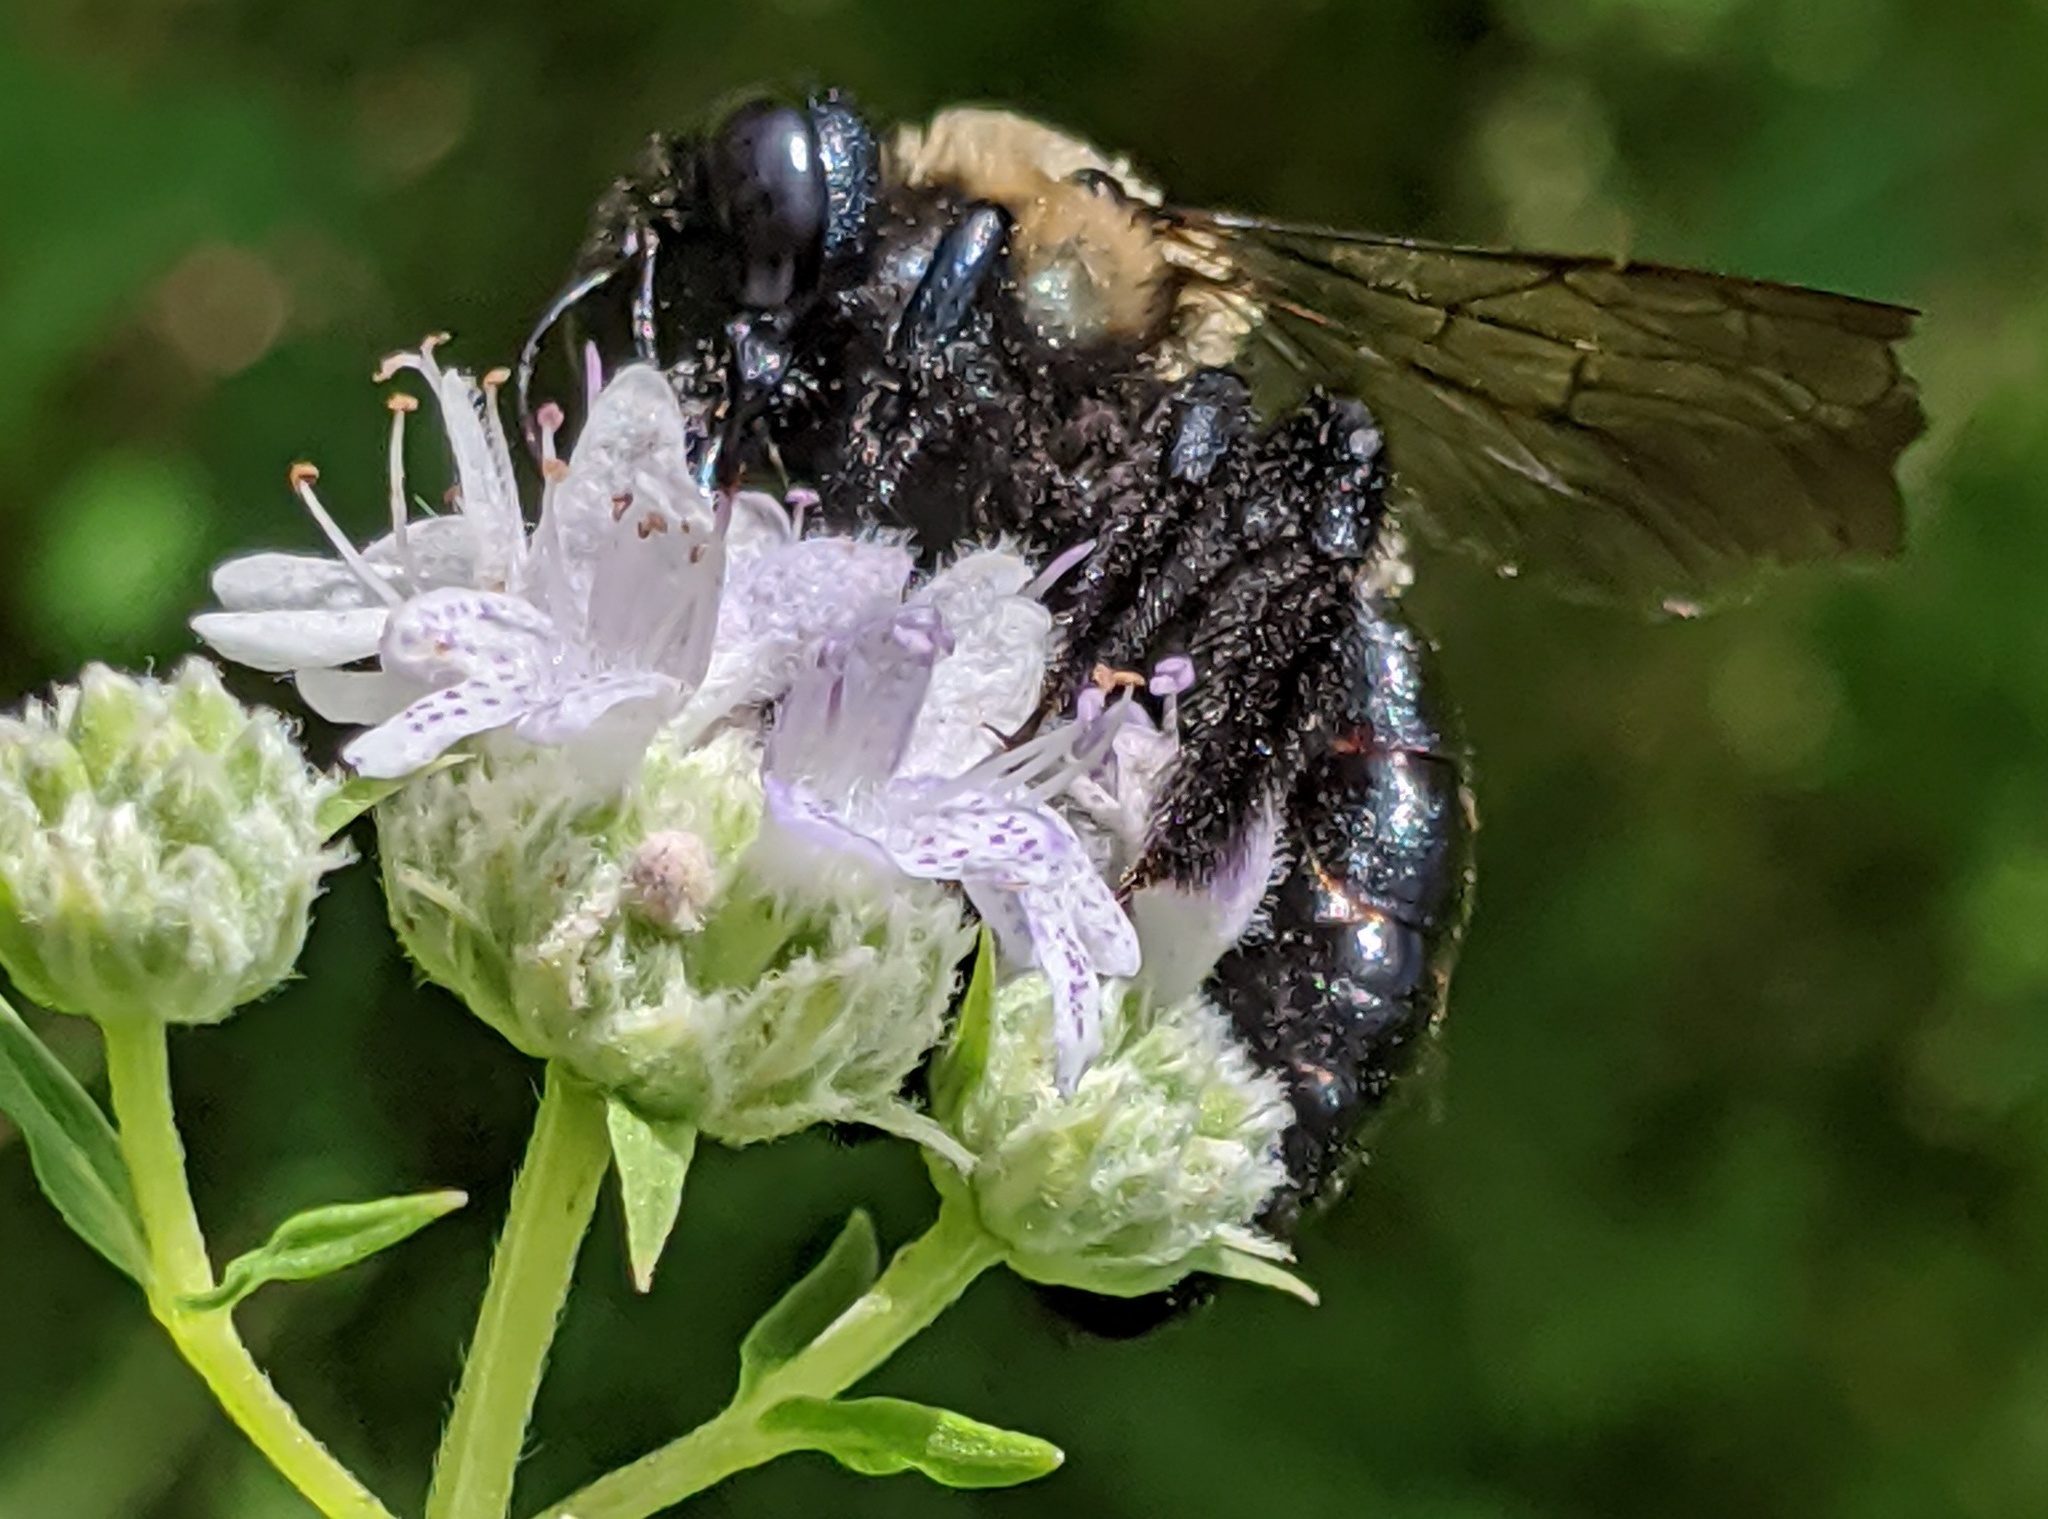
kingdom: Animalia
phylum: Arthropoda
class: Insecta
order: Hymenoptera
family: Apidae
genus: Xylocopa
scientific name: Xylocopa virginica
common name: Carpenter bee
